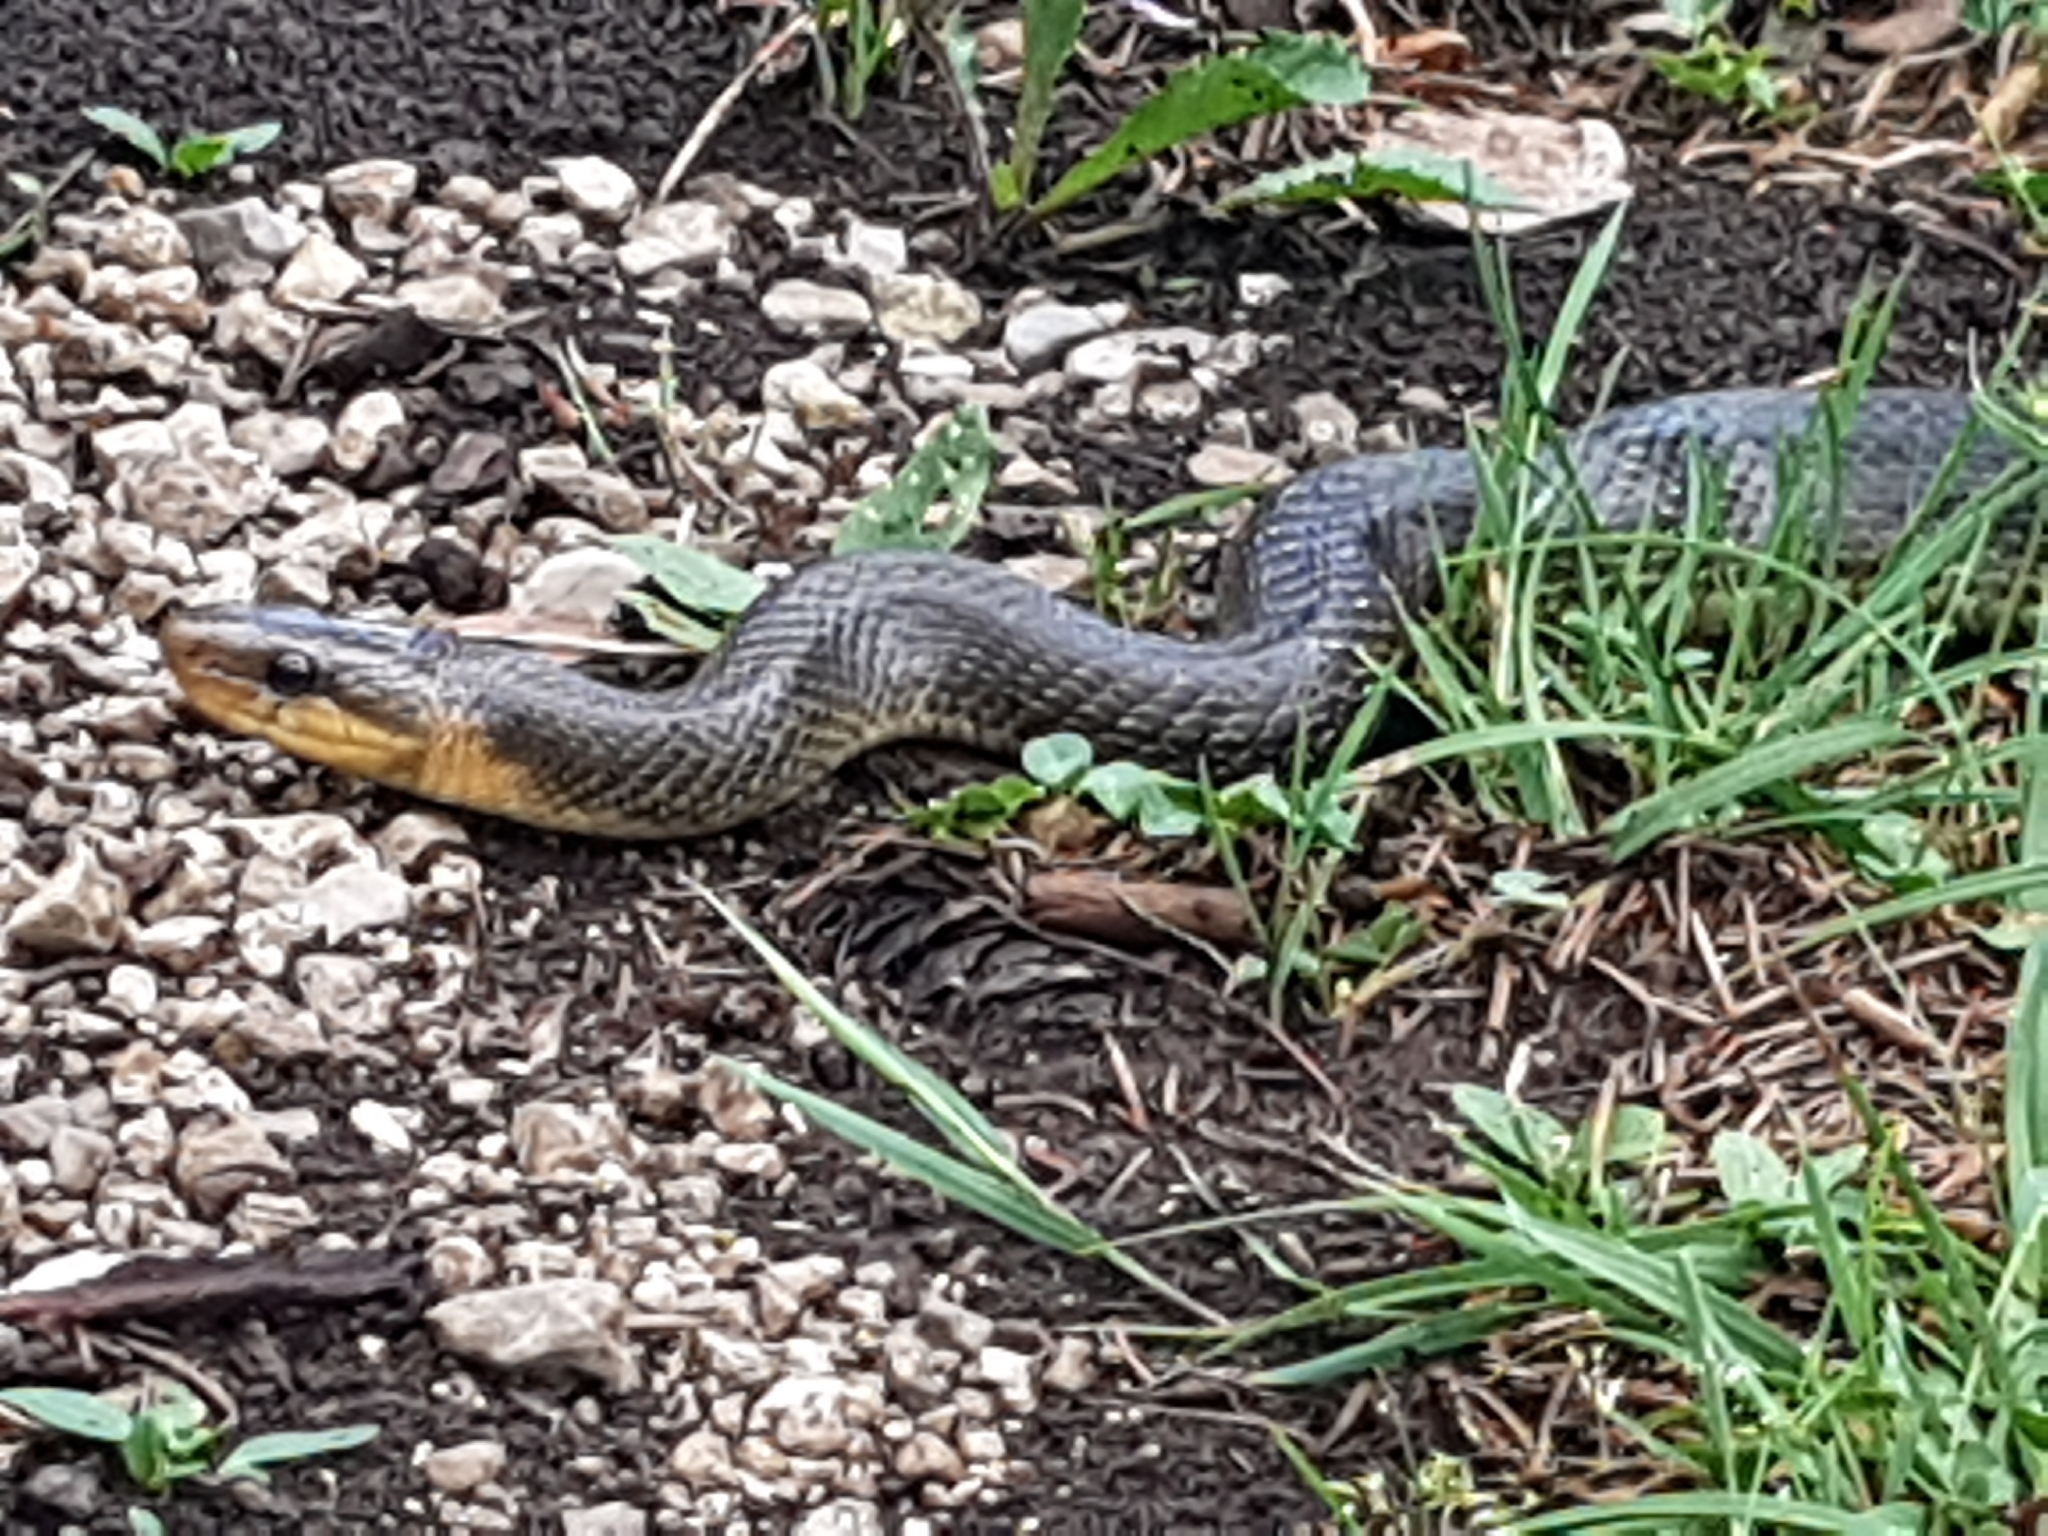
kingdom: Animalia
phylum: Chordata
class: Squamata
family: Colubridae
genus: Zamenis
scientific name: Zamenis longissimus
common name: Aesculapean snake
